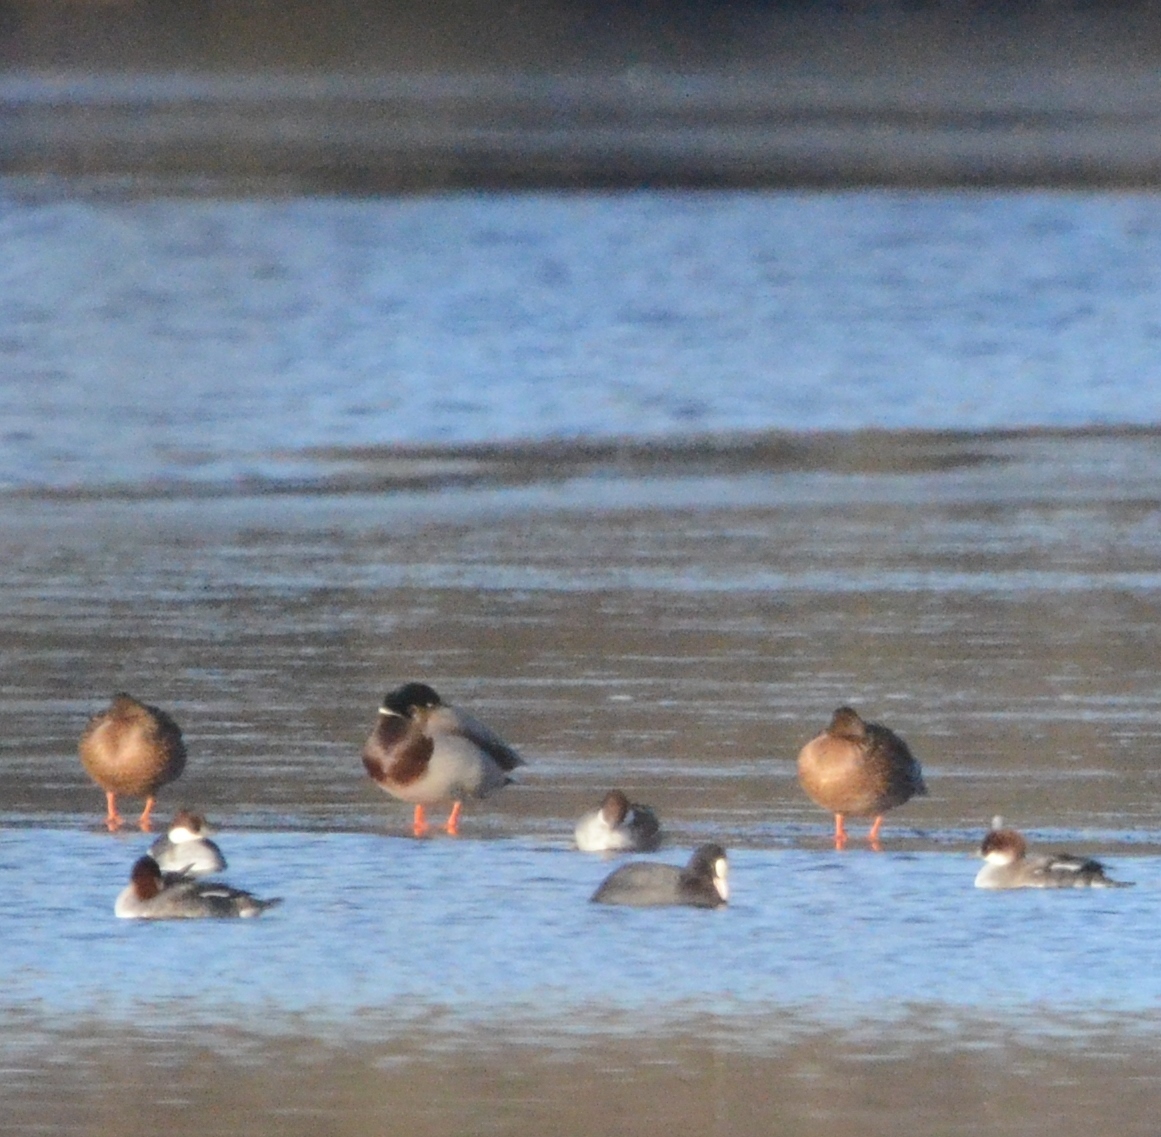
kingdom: Animalia
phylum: Chordata
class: Aves
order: Gruiformes
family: Rallidae
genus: Fulica
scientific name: Fulica atra
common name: Eurasian coot
